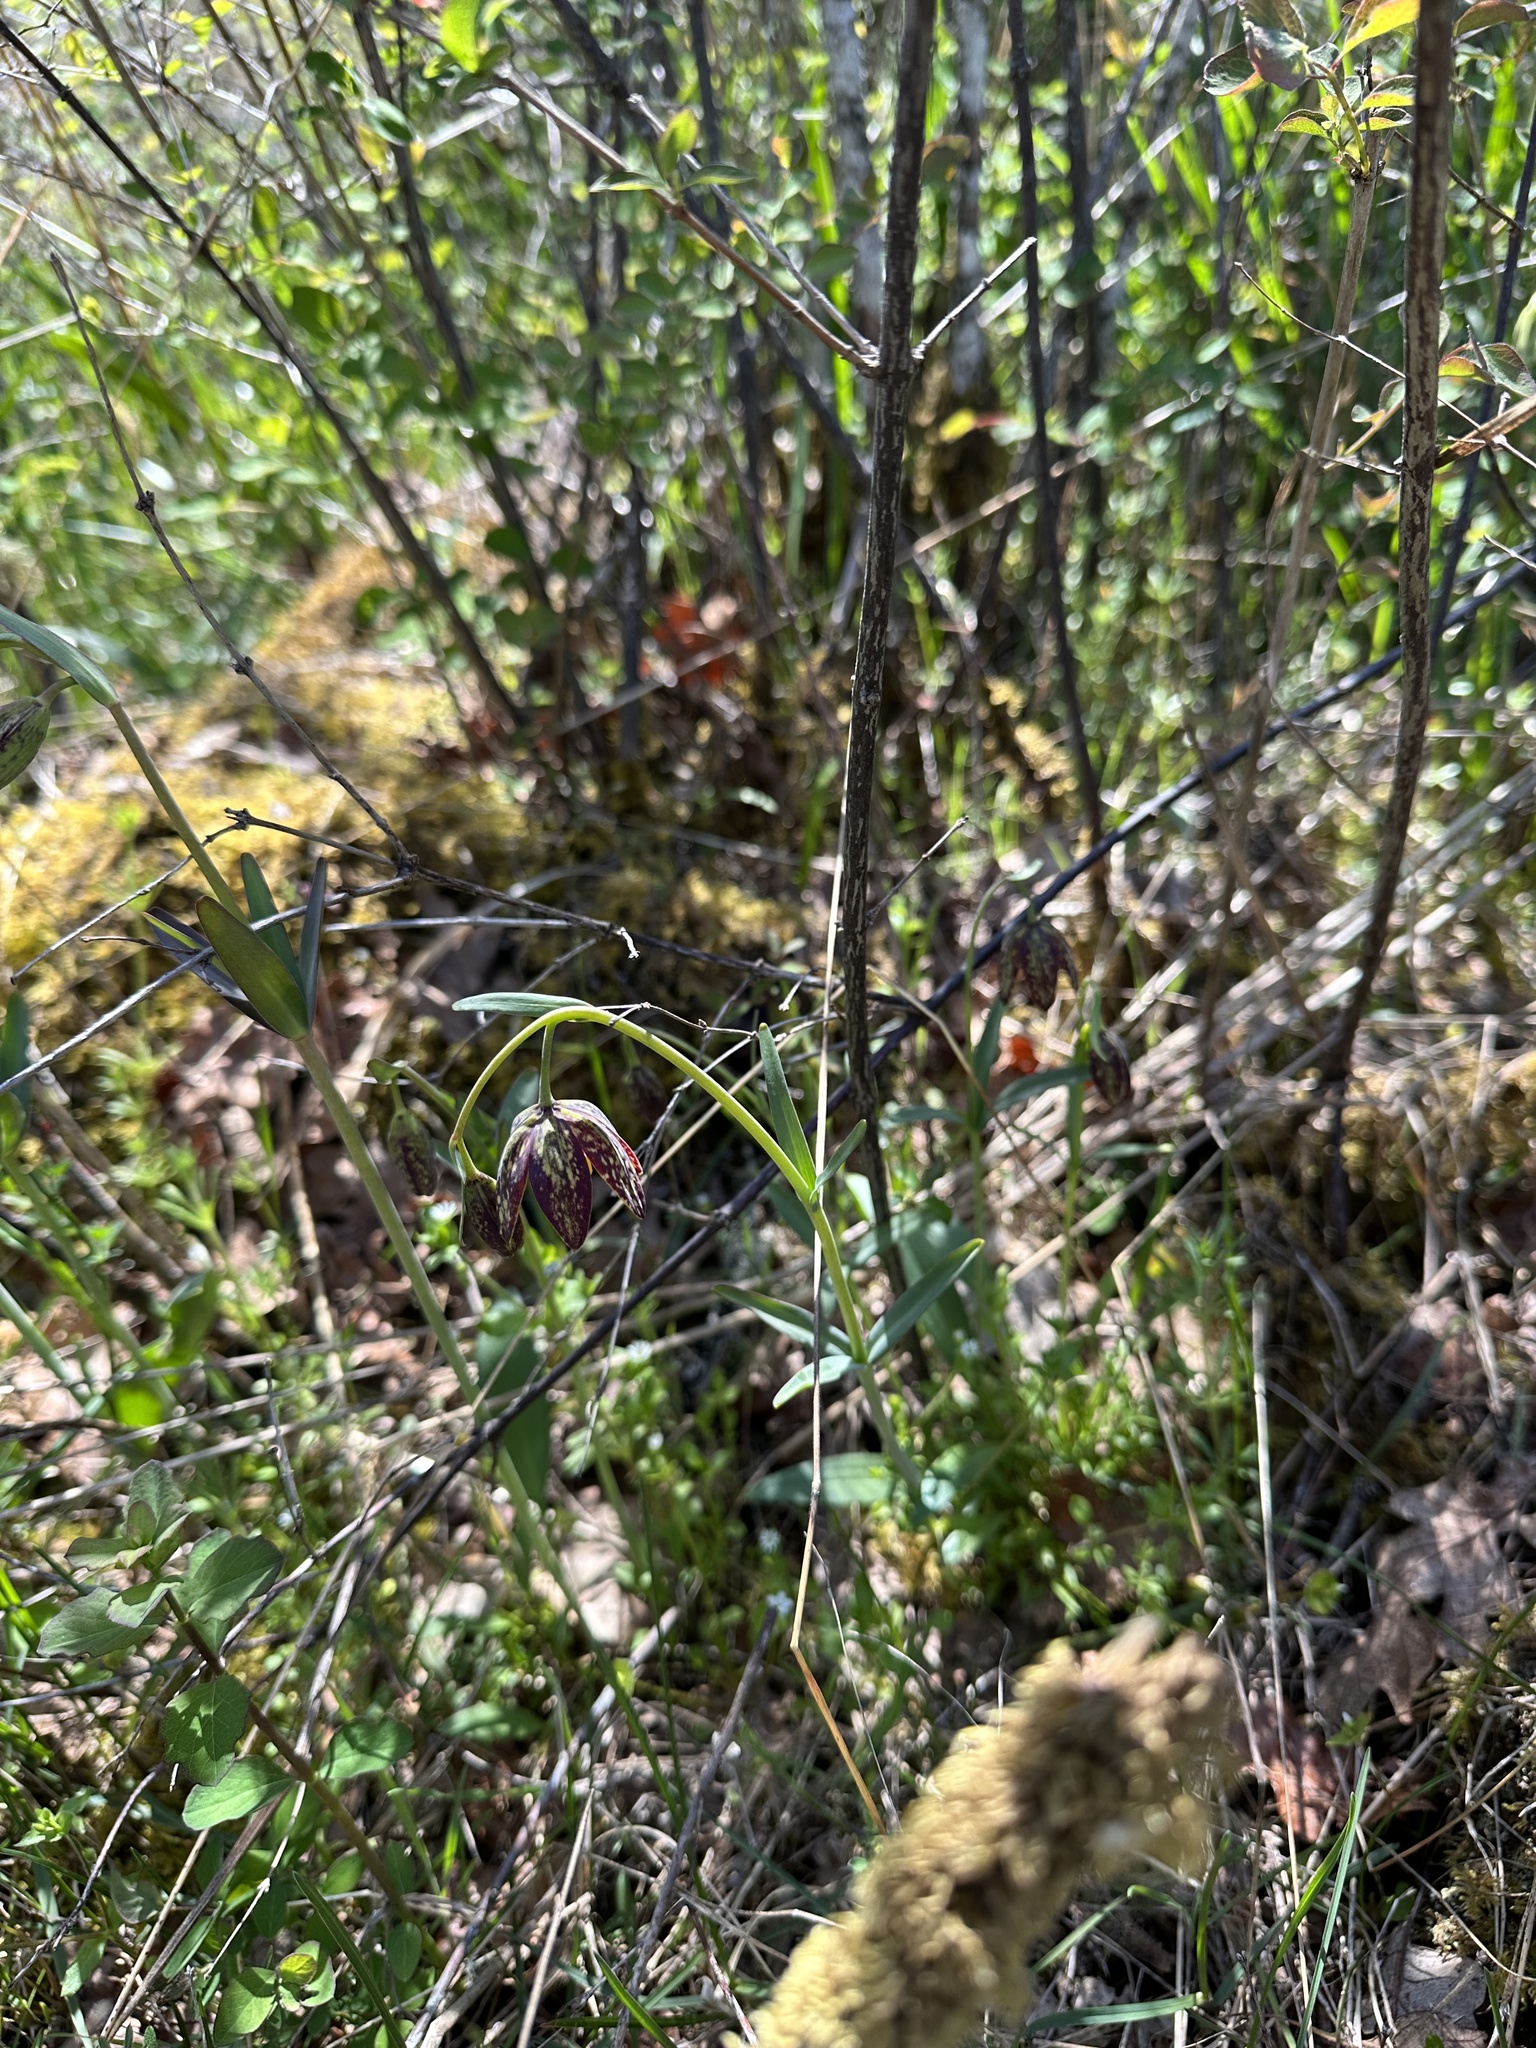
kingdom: Plantae
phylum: Tracheophyta
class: Liliopsida
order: Liliales
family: Liliaceae
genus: Fritillaria
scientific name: Fritillaria affinis
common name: Ojai fritillary
